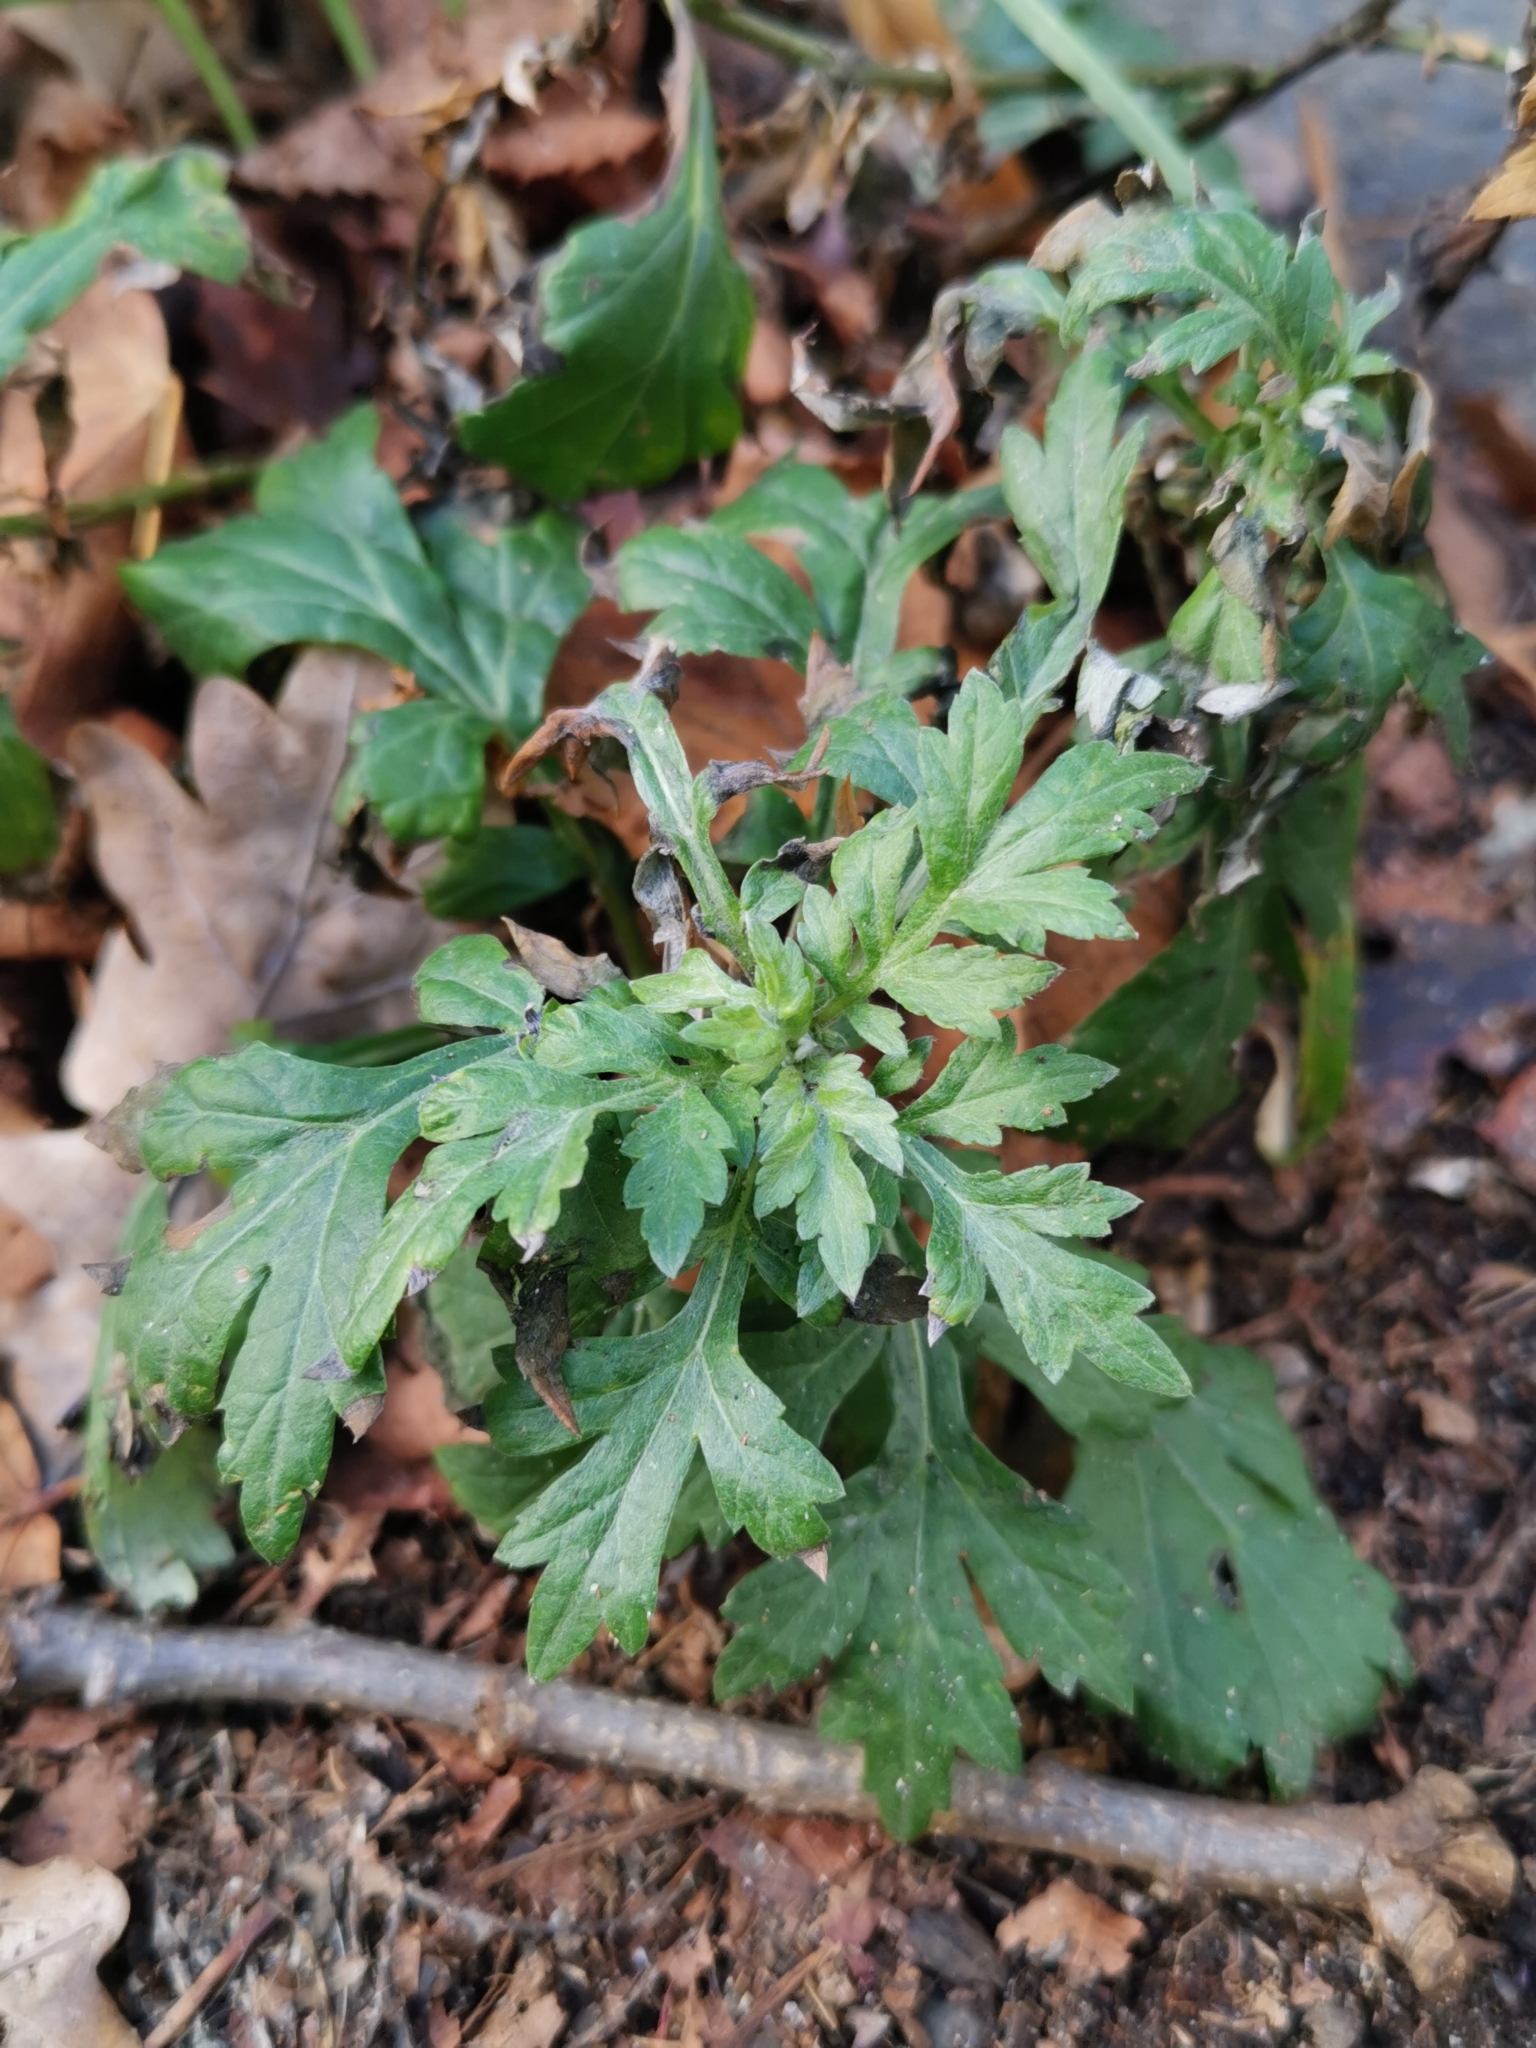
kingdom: Plantae
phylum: Tracheophyta
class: Magnoliopsida
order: Asterales
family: Asteraceae
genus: Artemisia
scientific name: Artemisia vulgaris
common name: Mugwort
